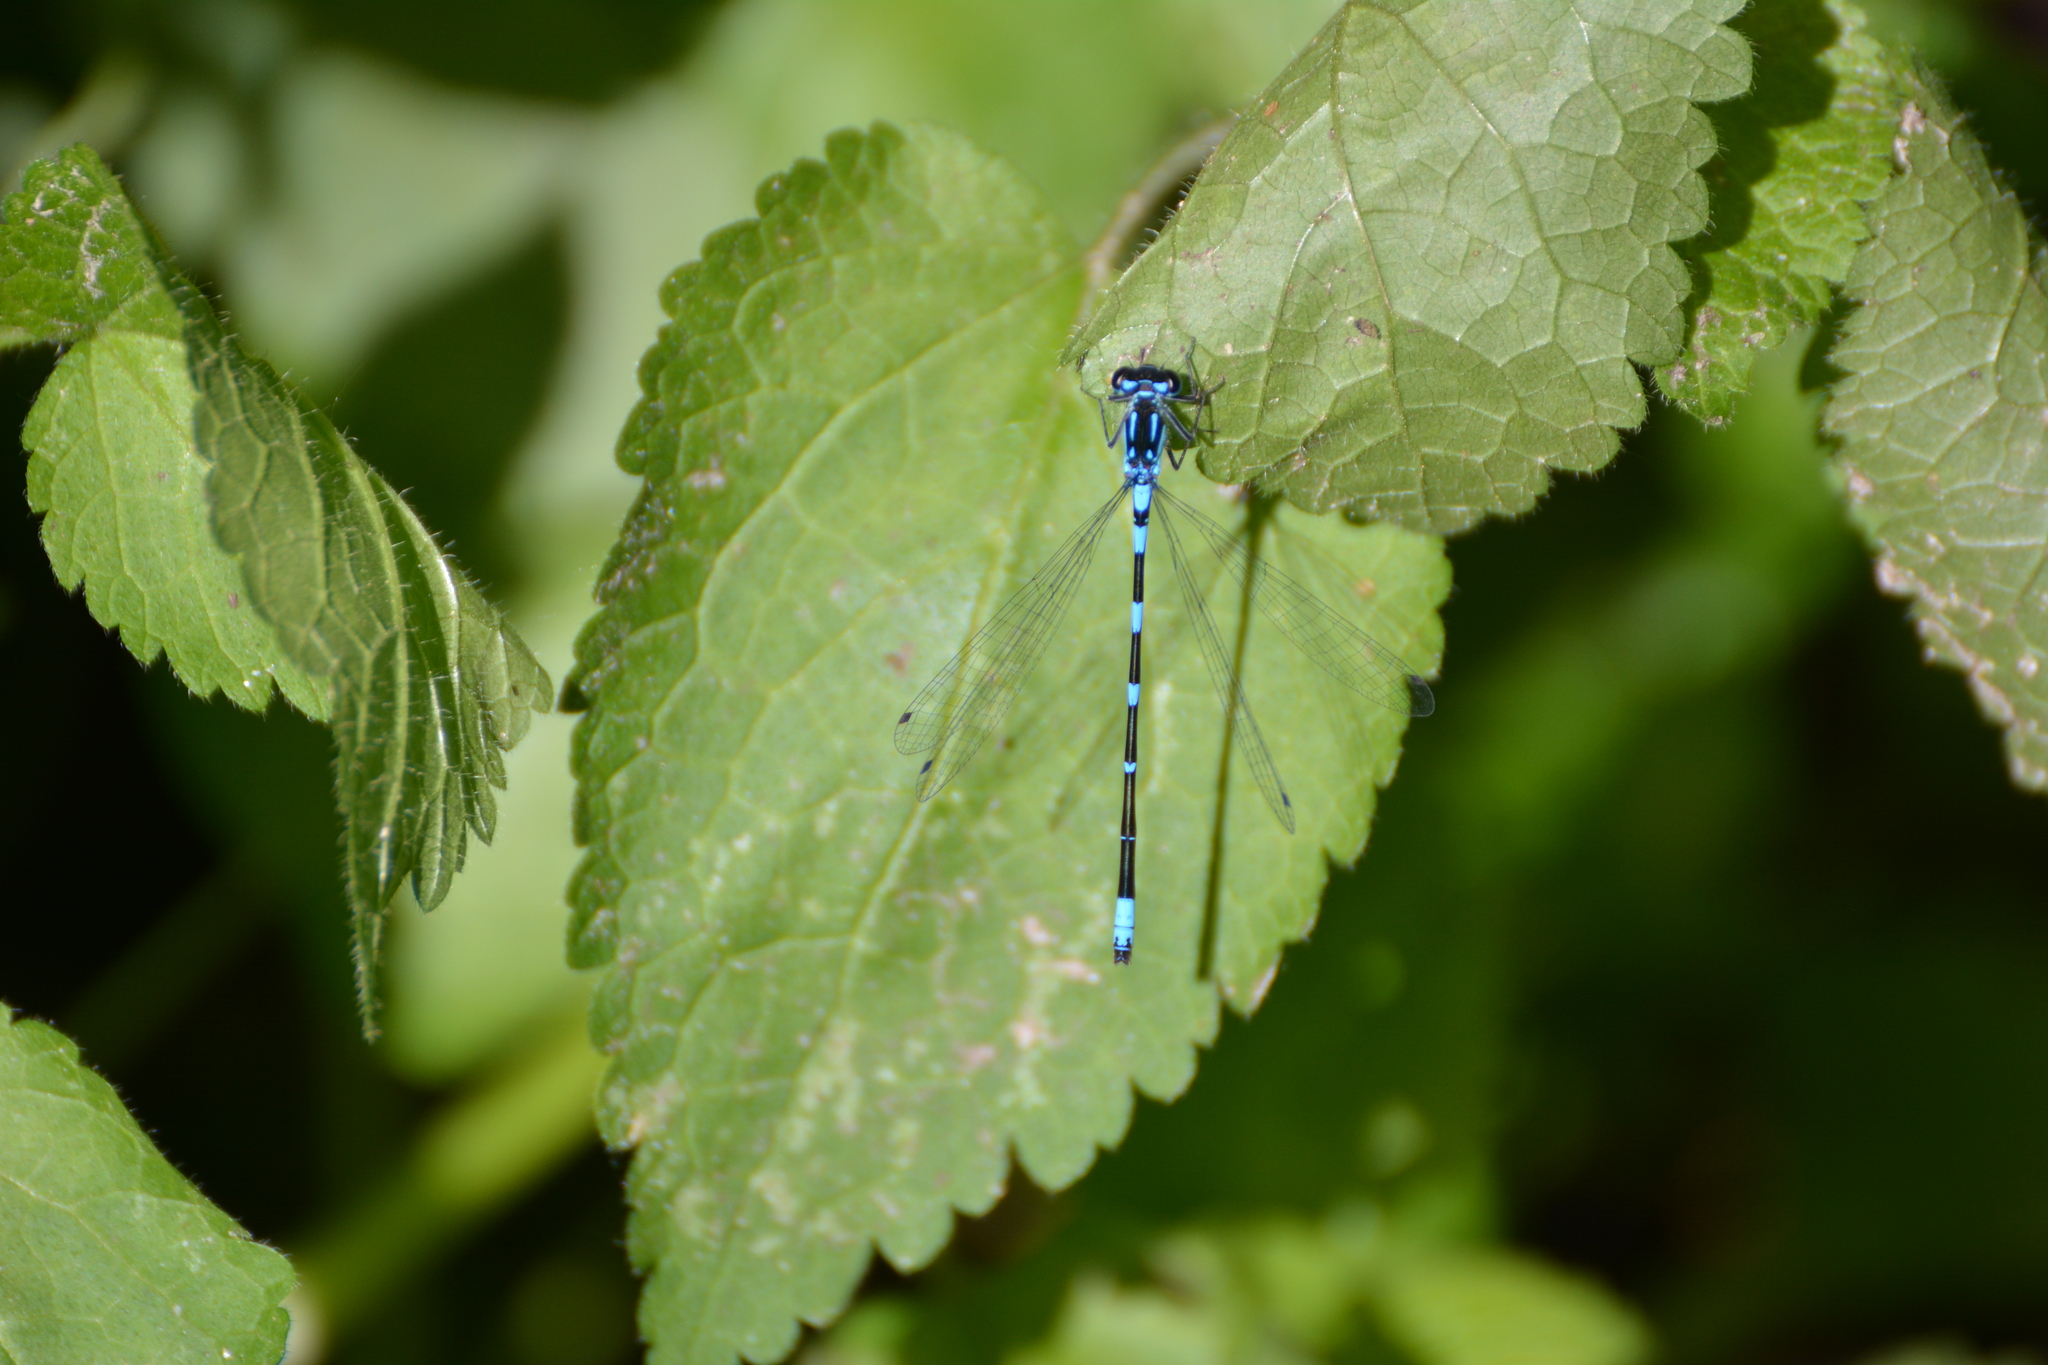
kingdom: Animalia
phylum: Arthropoda
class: Insecta
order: Odonata
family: Coenagrionidae
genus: Coenagrion
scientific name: Coenagrion pulchellum
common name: Variable bluet
